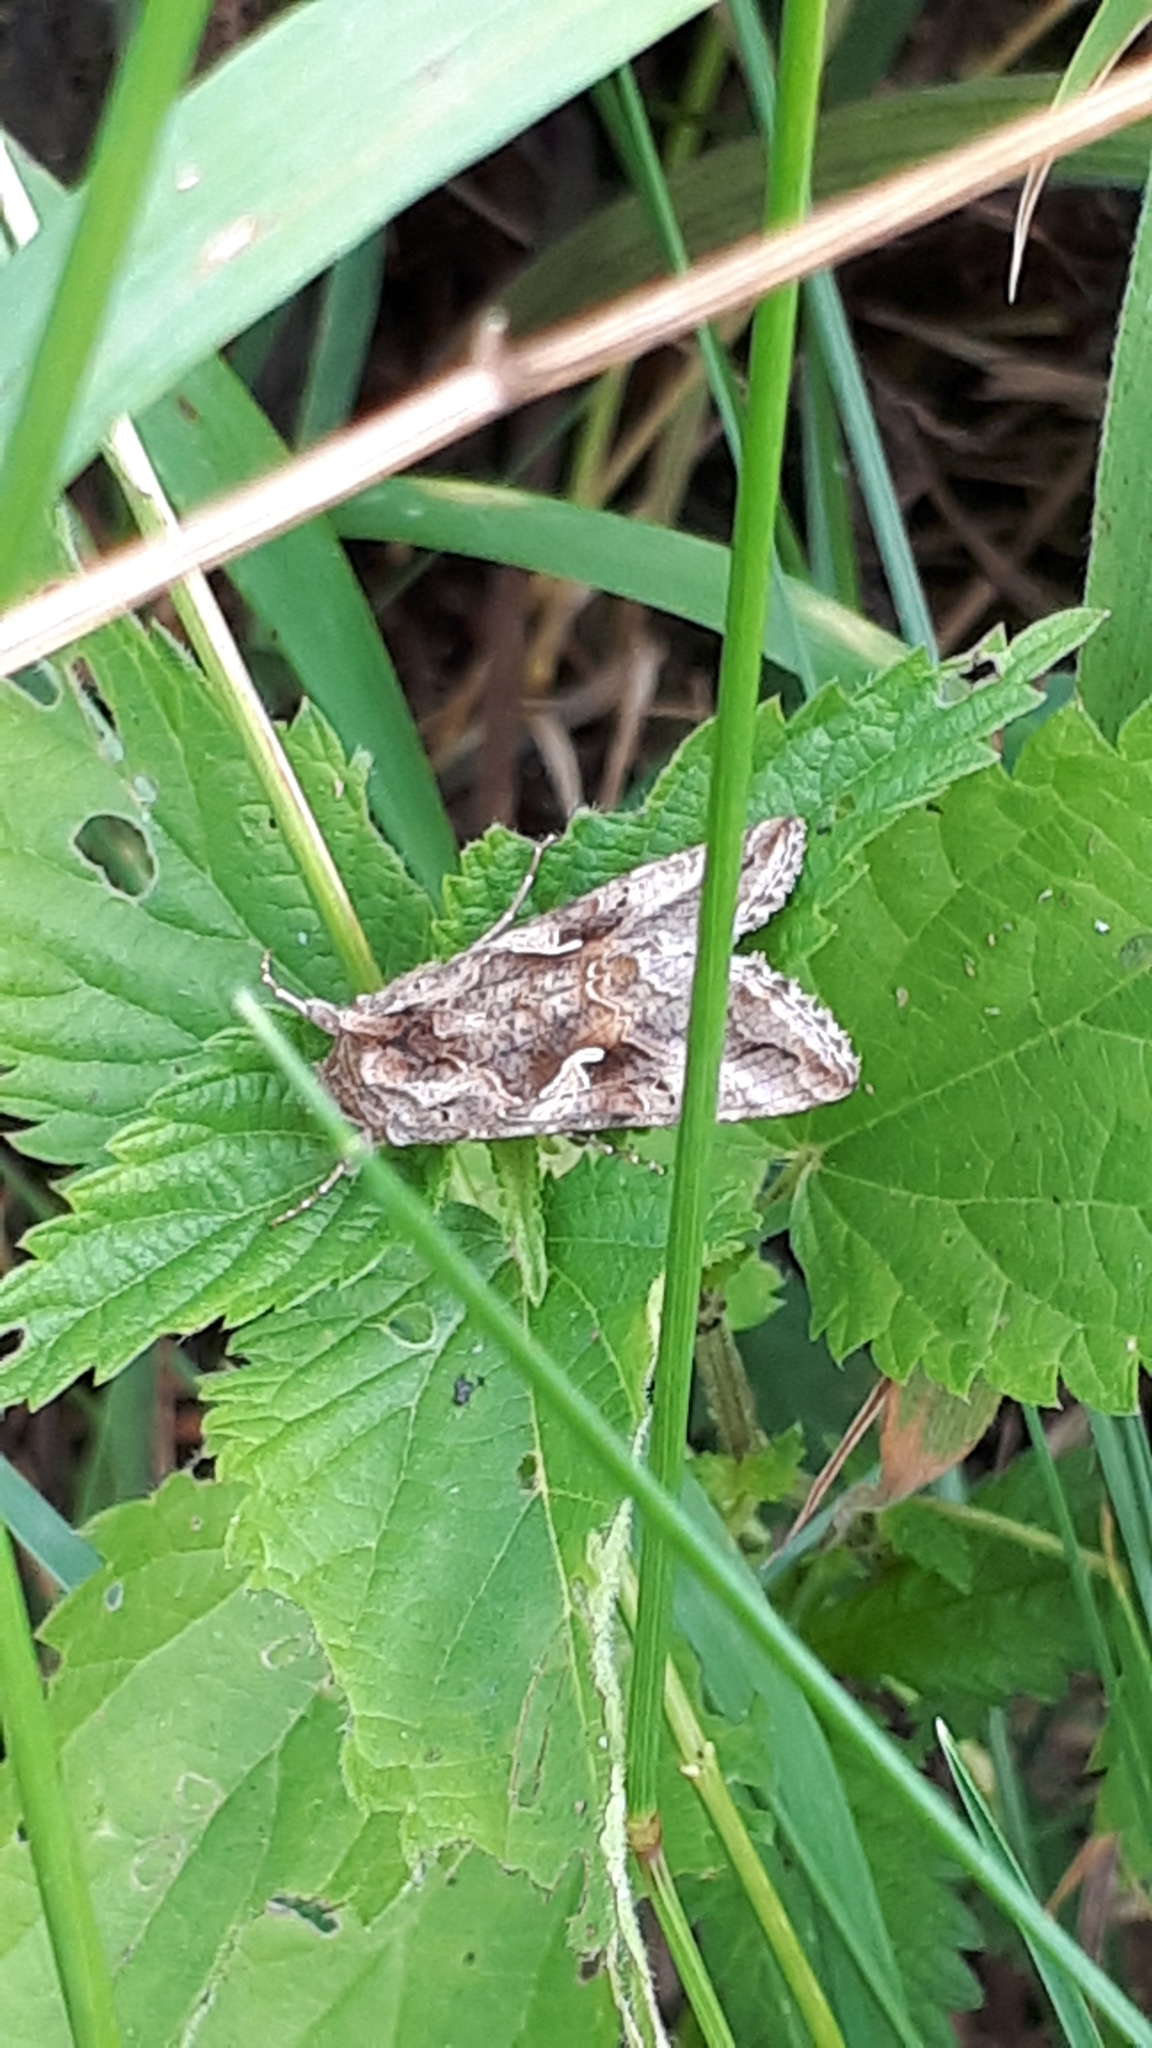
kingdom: Animalia
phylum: Arthropoda
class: Insecta
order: Lepidoptera
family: Noctuidae
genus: Autographa
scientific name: Autographa gamma
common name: Silver y
